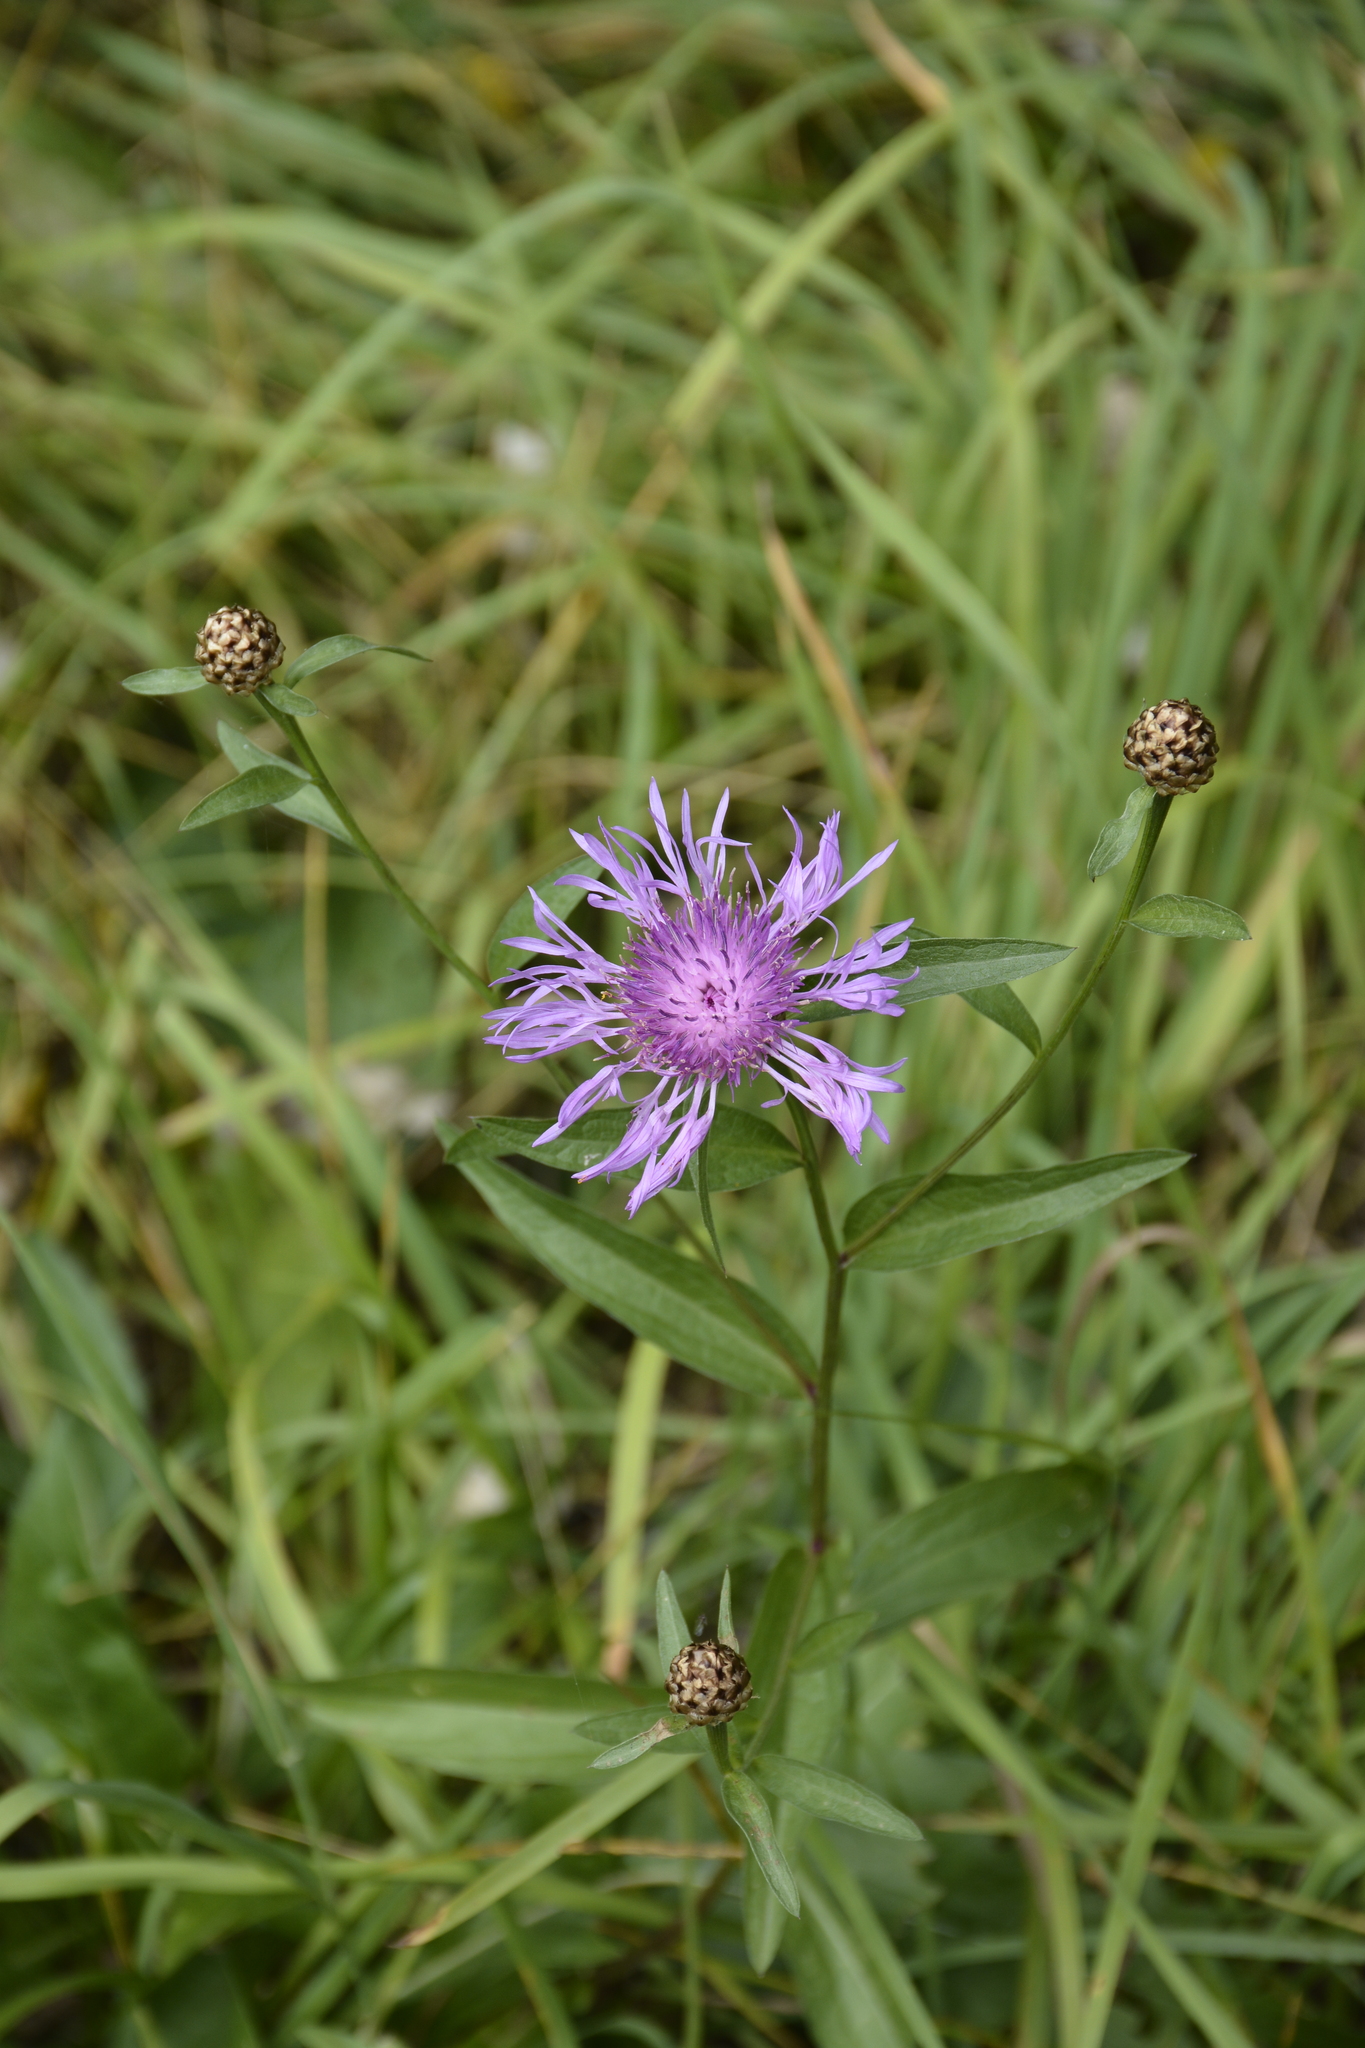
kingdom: Plantae
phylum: Tracheophyta
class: Magnoliopsida
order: Asterales
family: Asteraceae
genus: Centaurea
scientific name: Centaurea jacea
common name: Brown knapweed
